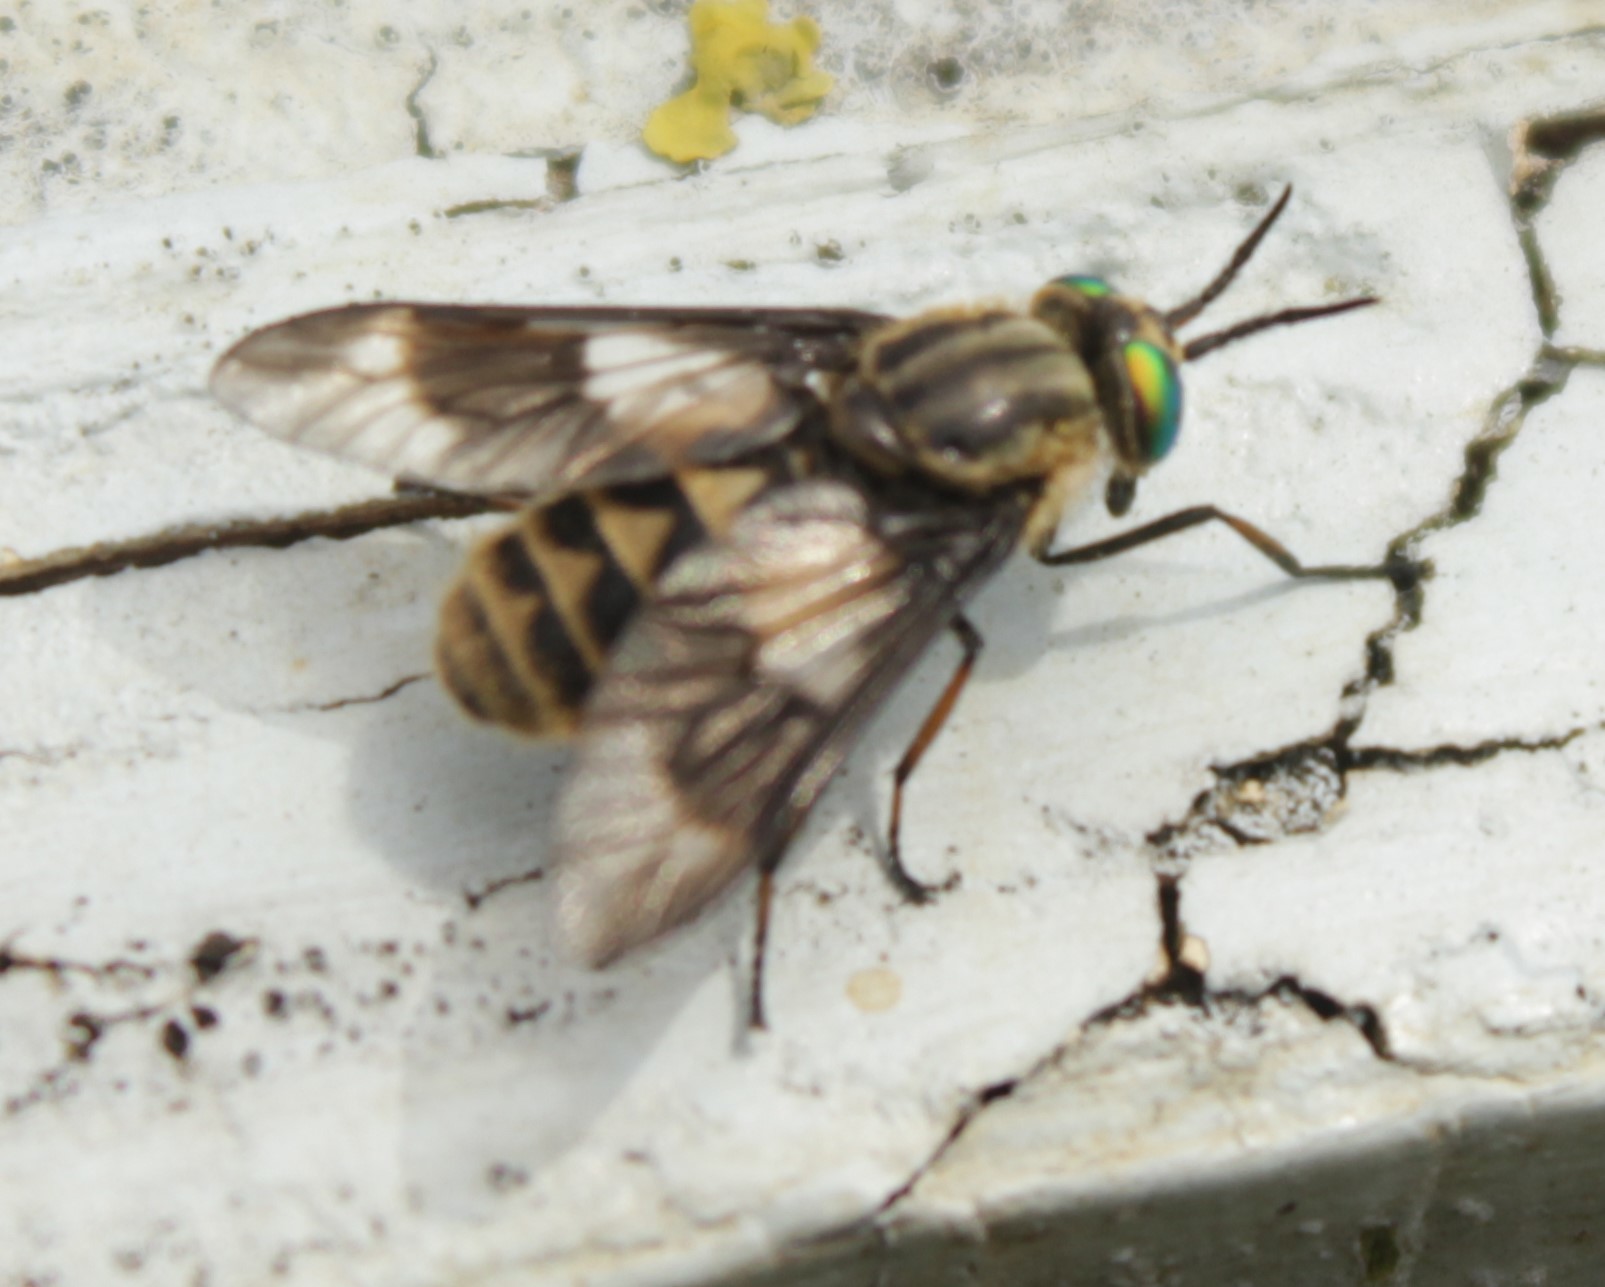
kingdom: Animalia
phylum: Arthropoda
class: Insecta
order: Diptera
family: Tabanidae
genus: Chrysops
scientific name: Chrysops relictus
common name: Twin-lobed deerfly
